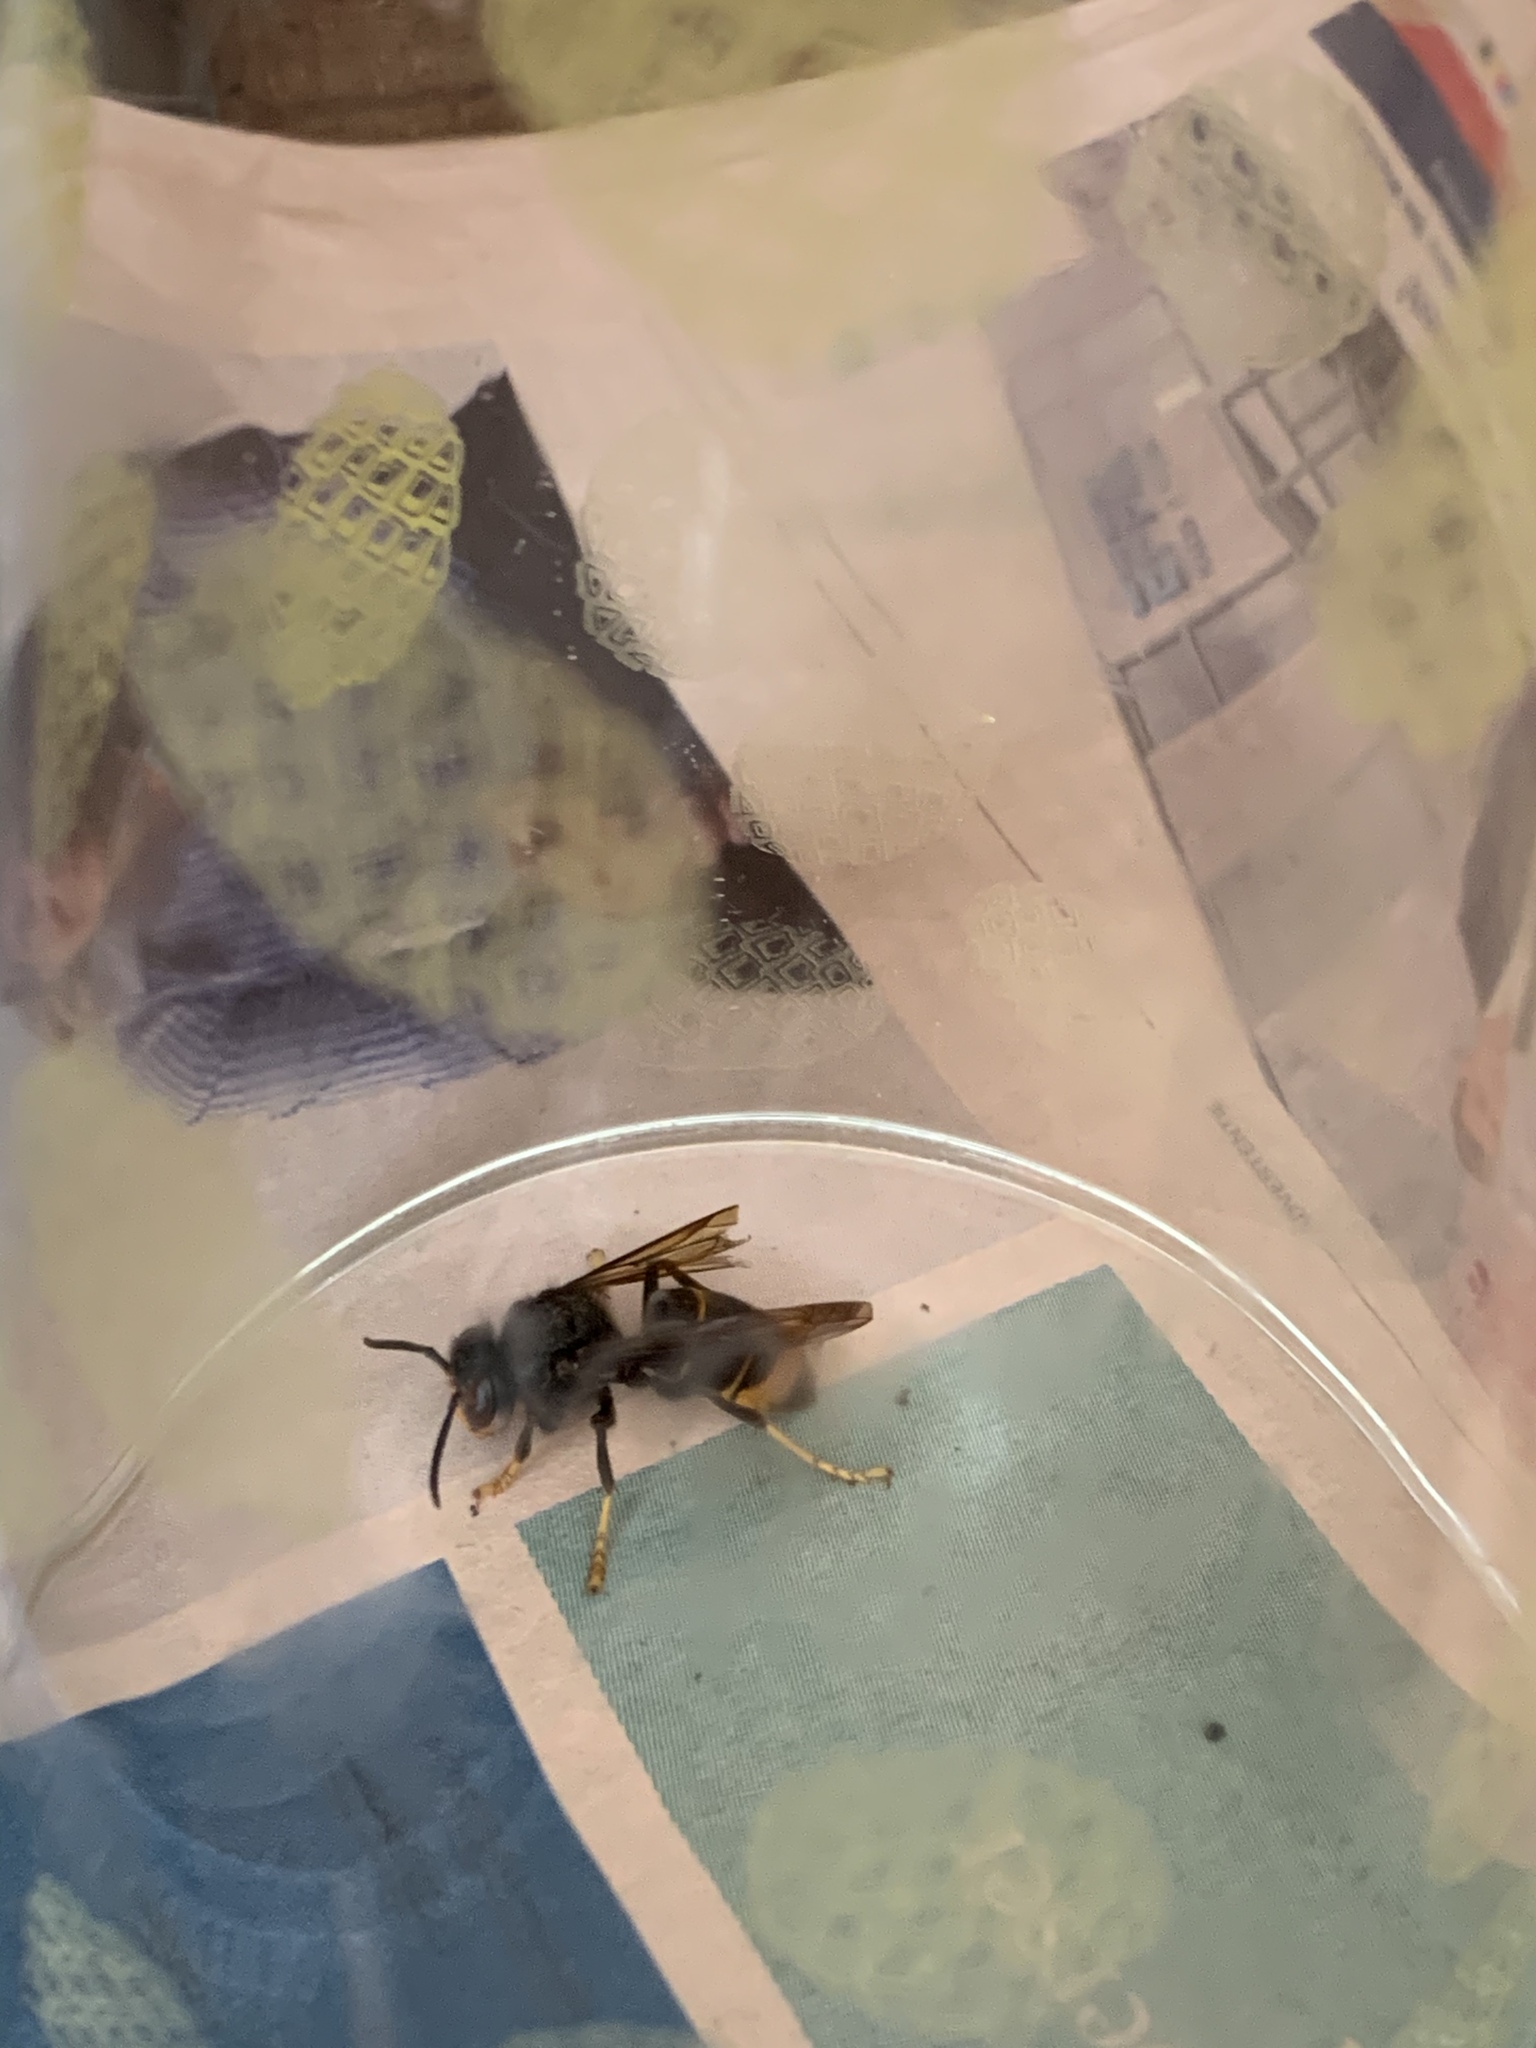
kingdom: Animalia
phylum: Arthropoda
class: Insecta
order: Hymenoptera
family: Vespidae
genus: Vespa
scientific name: Vespa velutina
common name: Asian hornet
